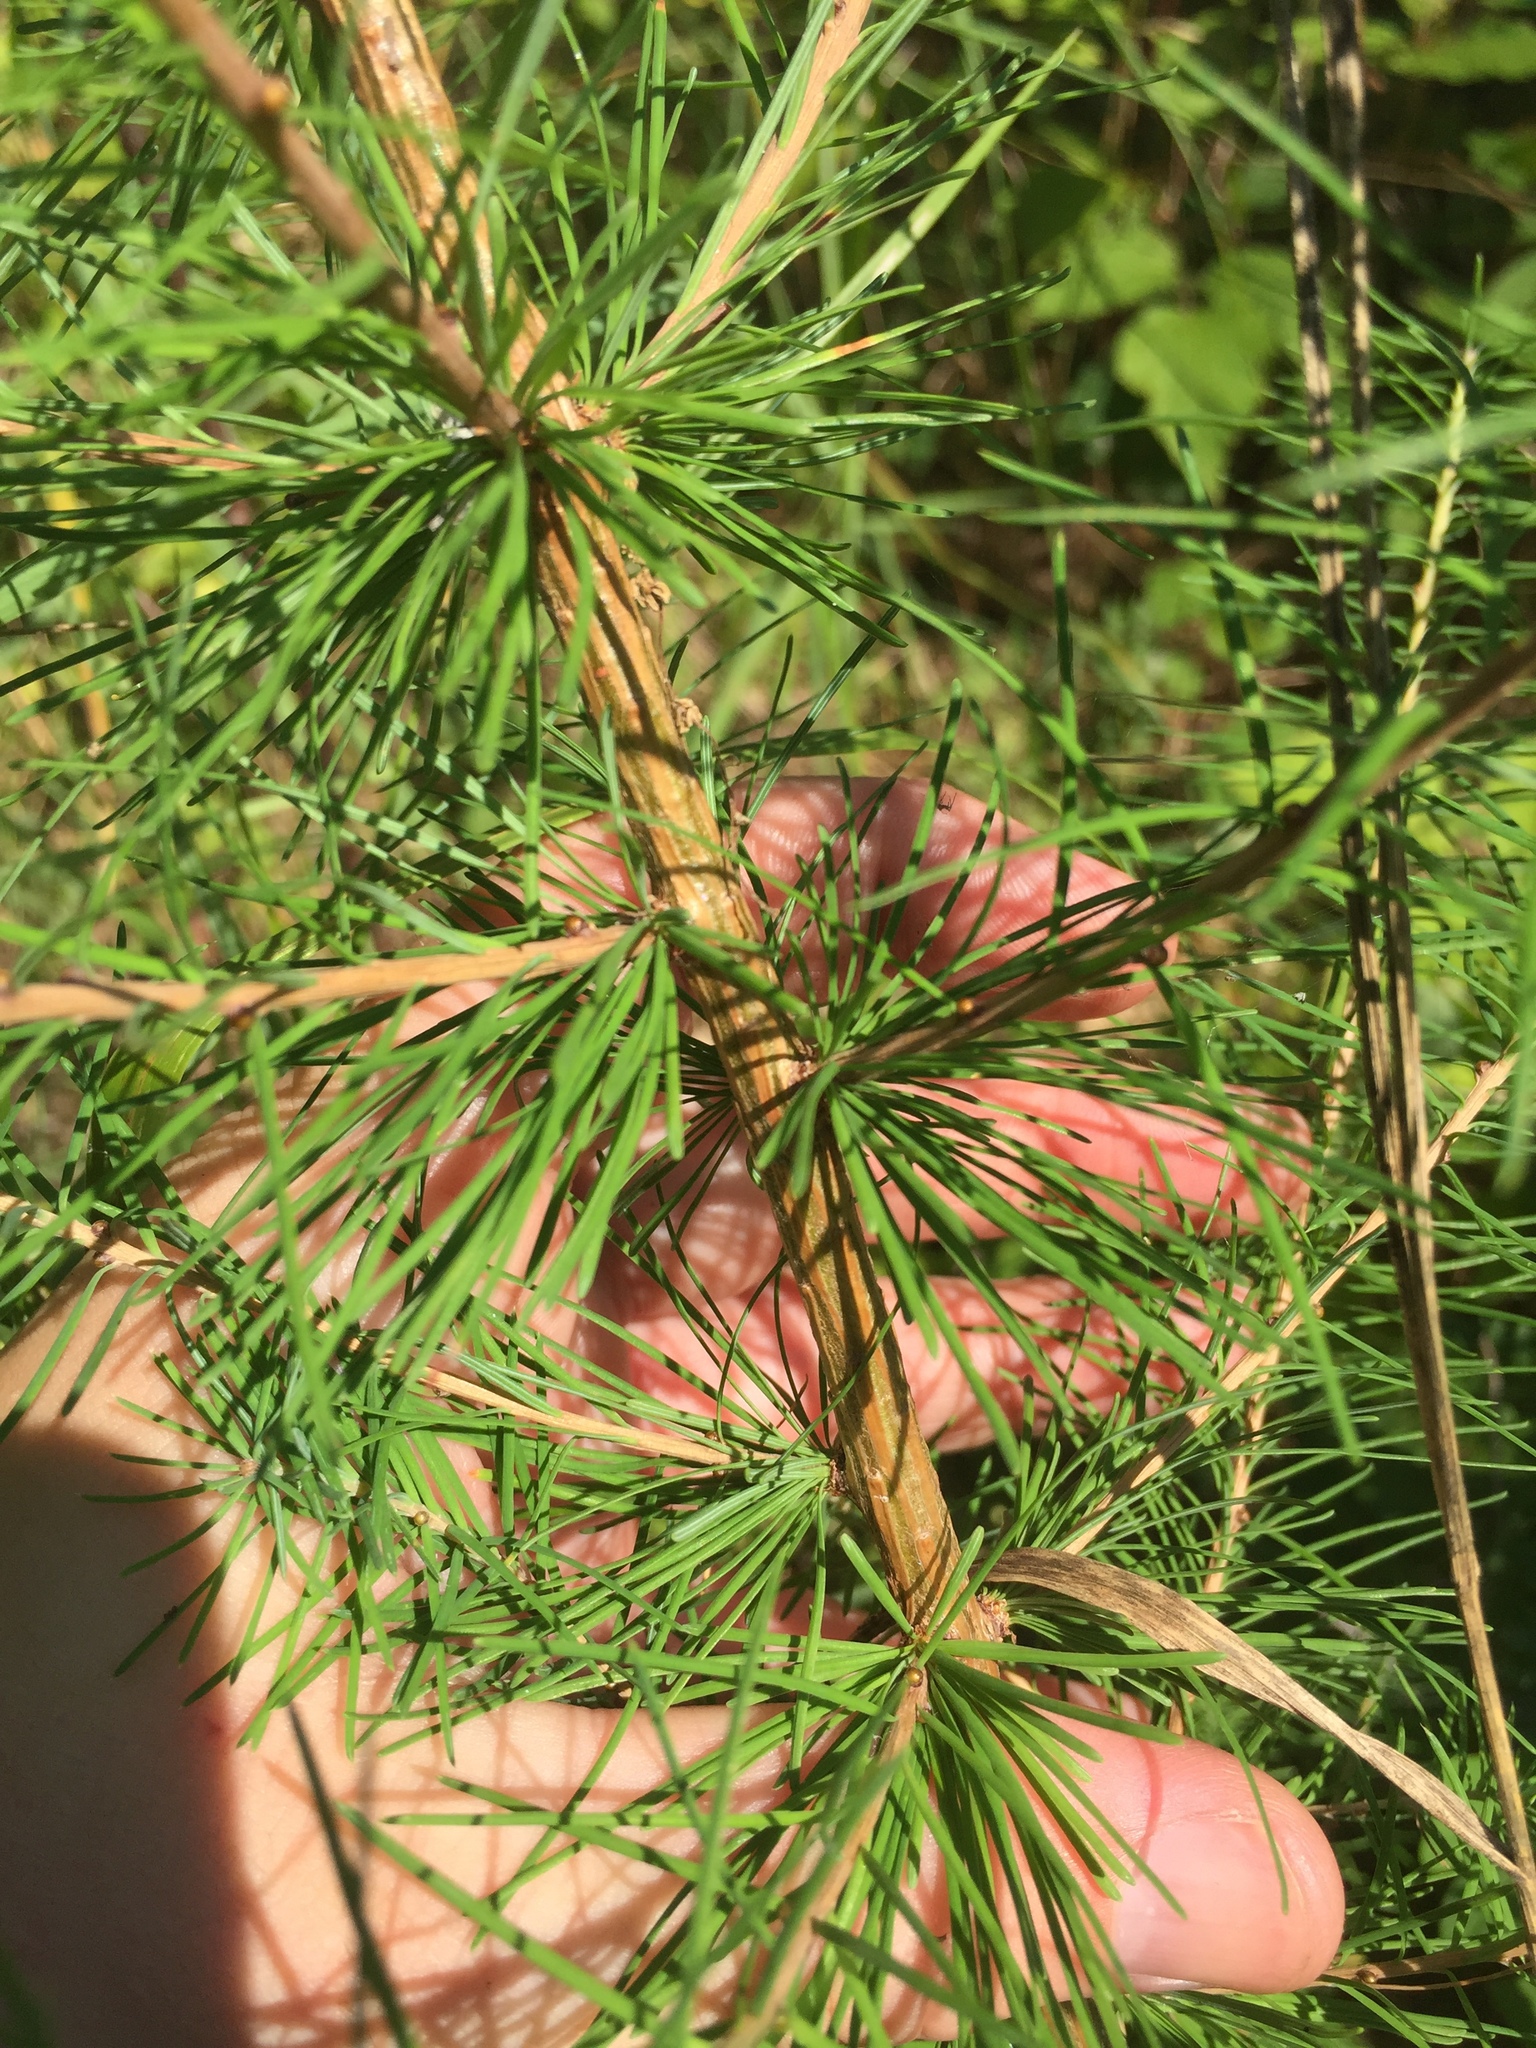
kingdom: Plantae
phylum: Tracheophyta
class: Pinopsida
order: Pinales
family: Pinaceae
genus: Larix
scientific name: Larix laricina
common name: American larch
